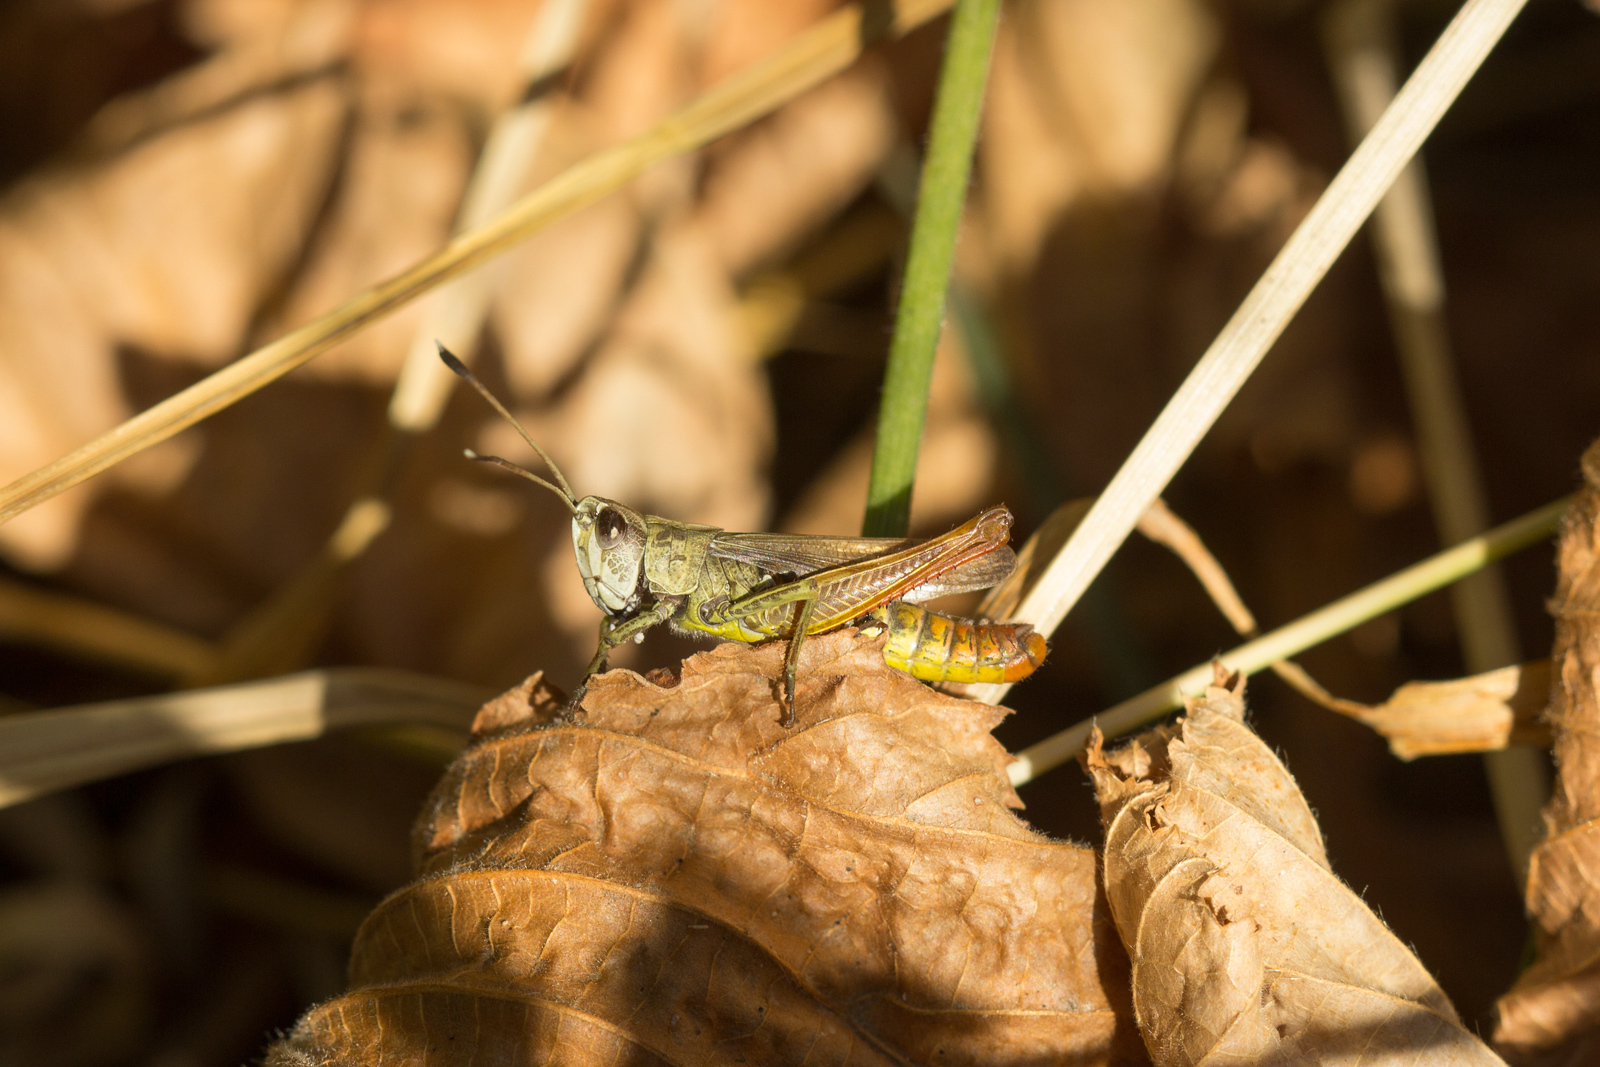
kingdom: Animalia
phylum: Arthropoda
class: Insecta
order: Orthoptera
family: Acrididae
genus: Gomphocerippus
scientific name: Gomphocerippus rufus
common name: Rufous grasshopper
